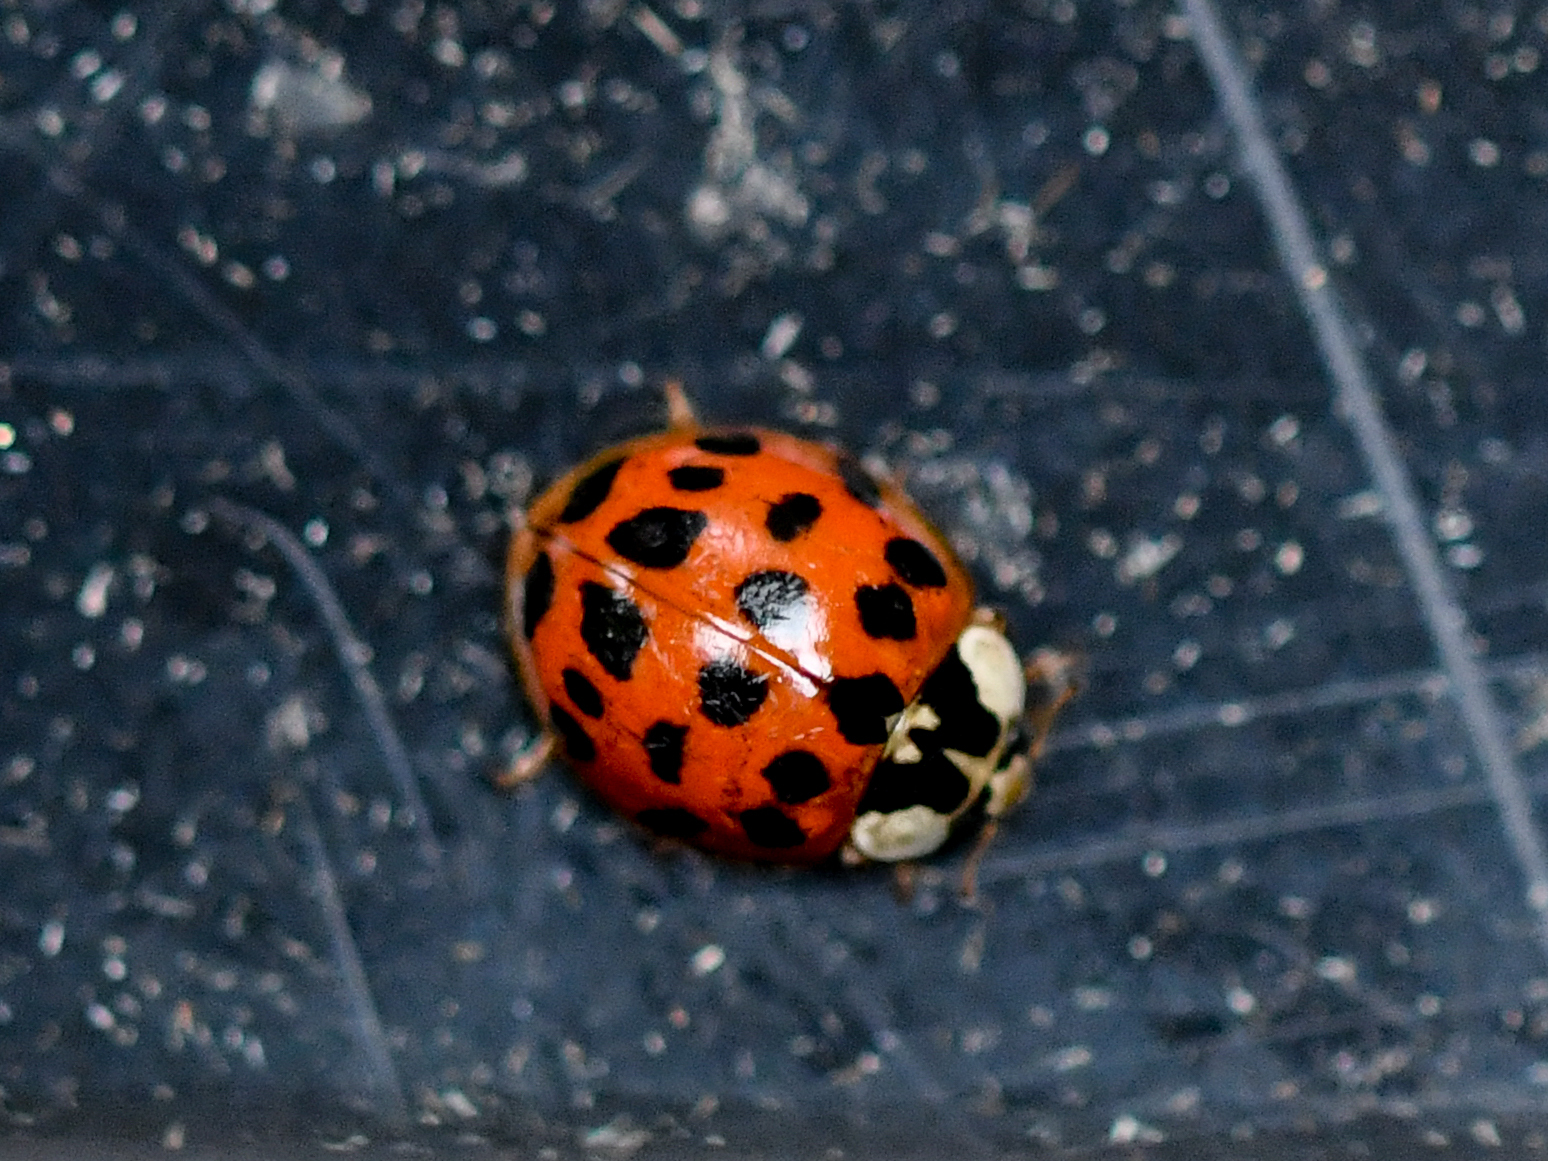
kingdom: Animalia
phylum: Arthropoda
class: Insecta
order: Coleoptera
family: Coccinellidae
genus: Harmonia
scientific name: Harmonia axyridis
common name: Harlequin ladybird
